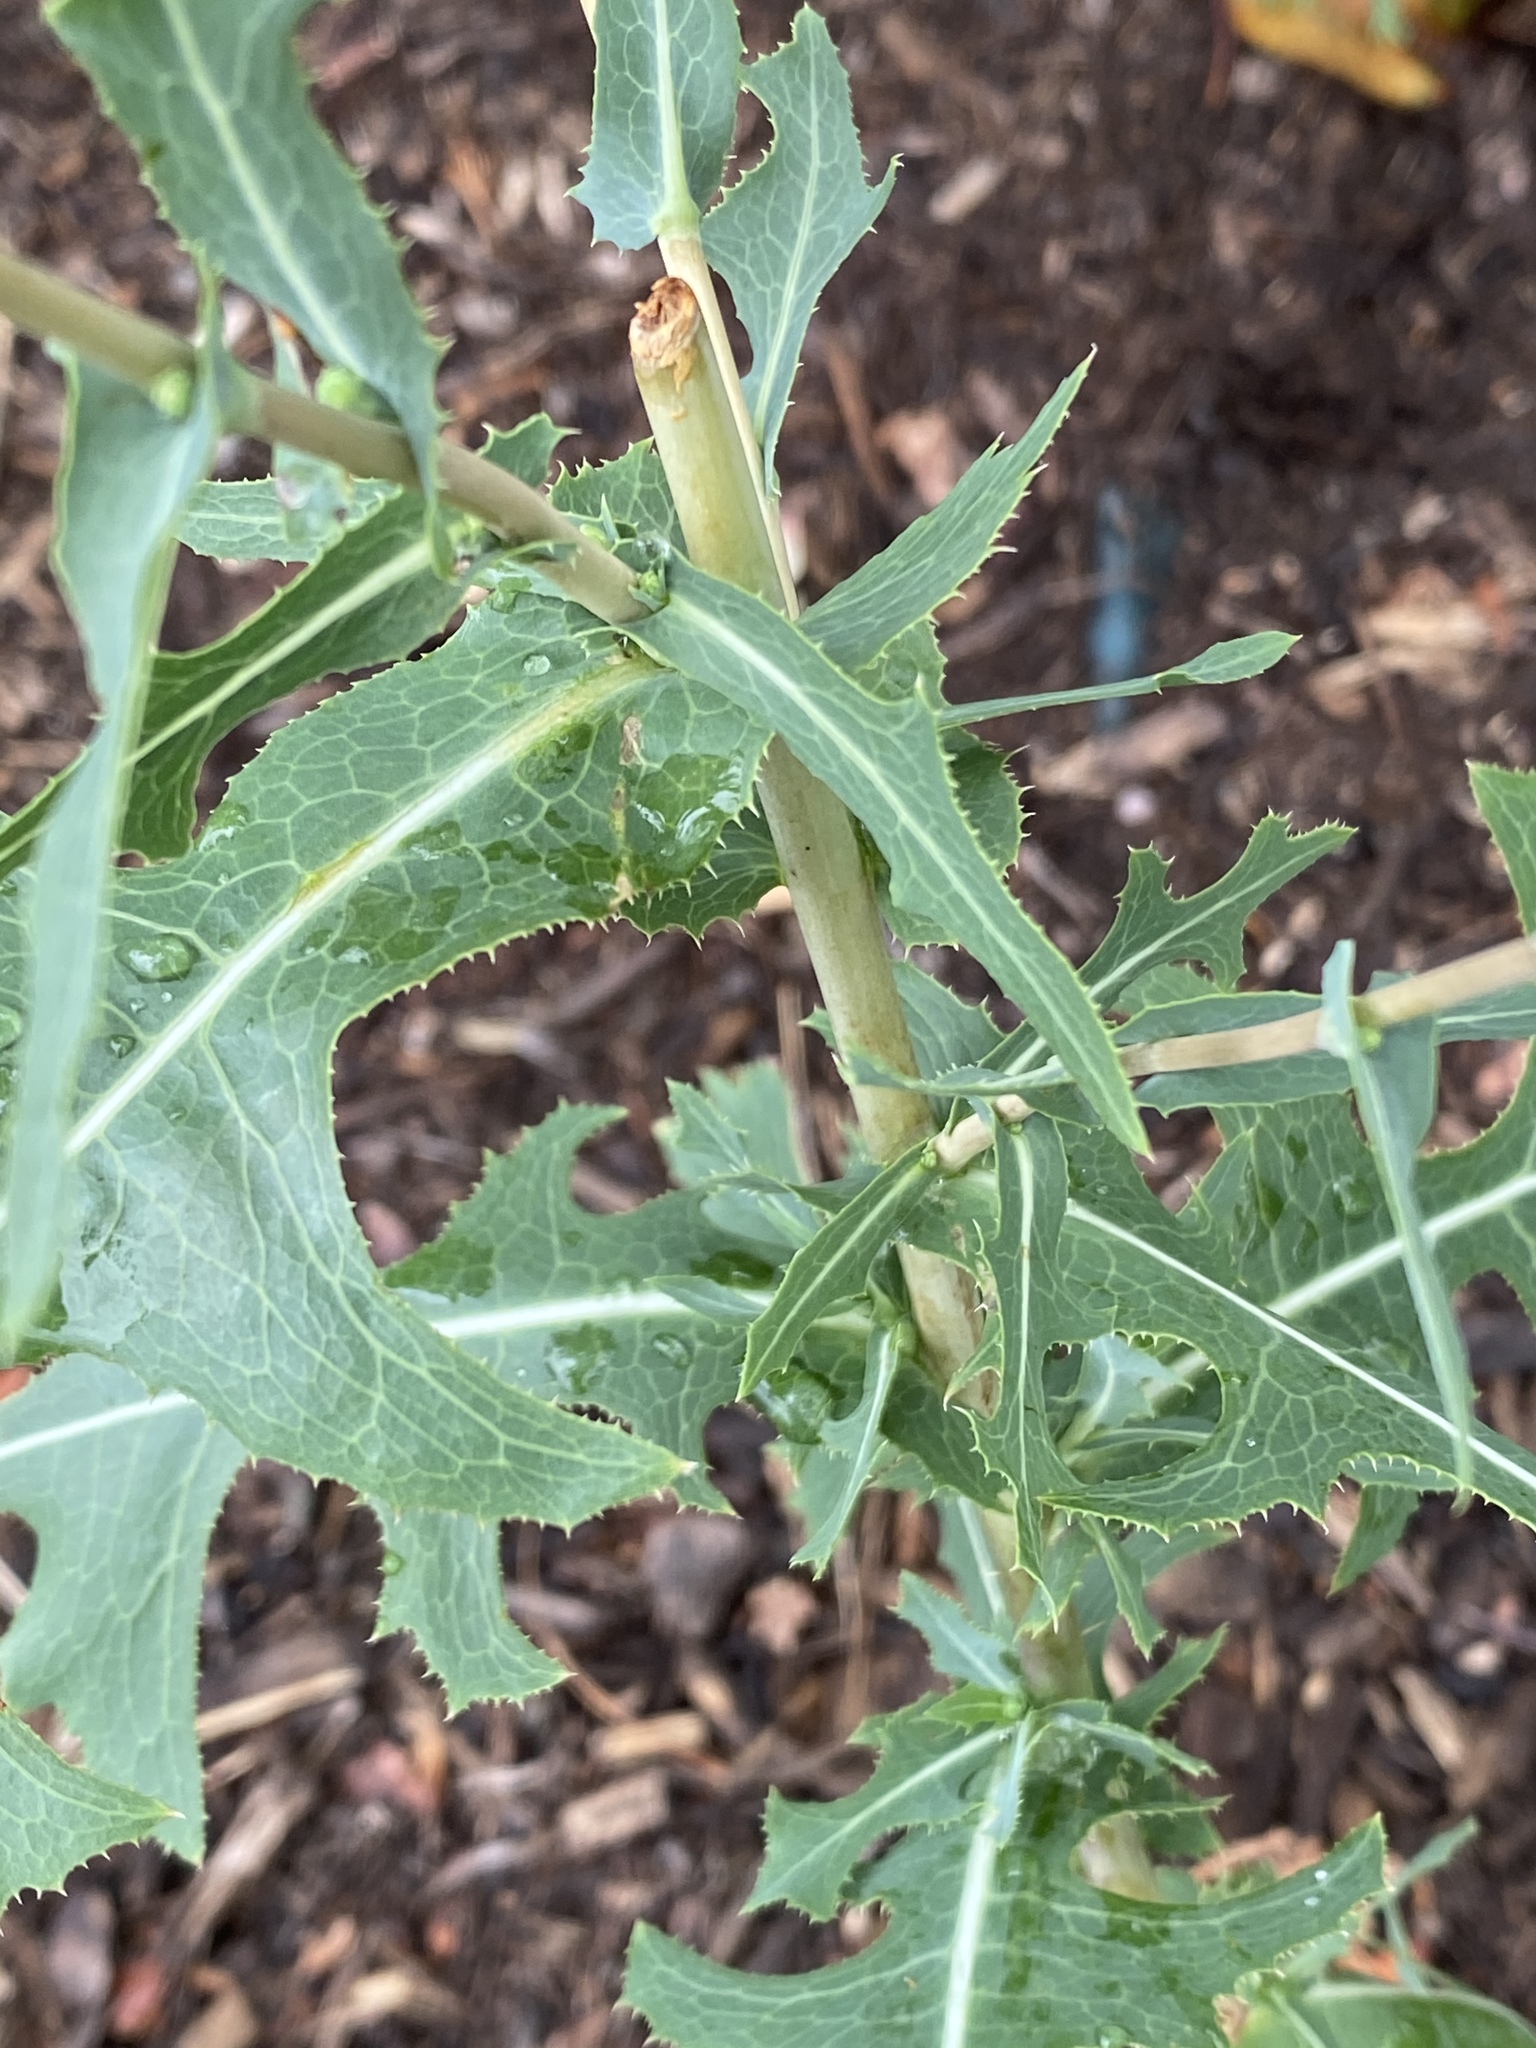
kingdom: Plantae
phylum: Tracheophyta
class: Magnoliopsida
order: Asterales
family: Asteraceae
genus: Lactuca
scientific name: Lactuca serriola
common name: Prickly lettuce
